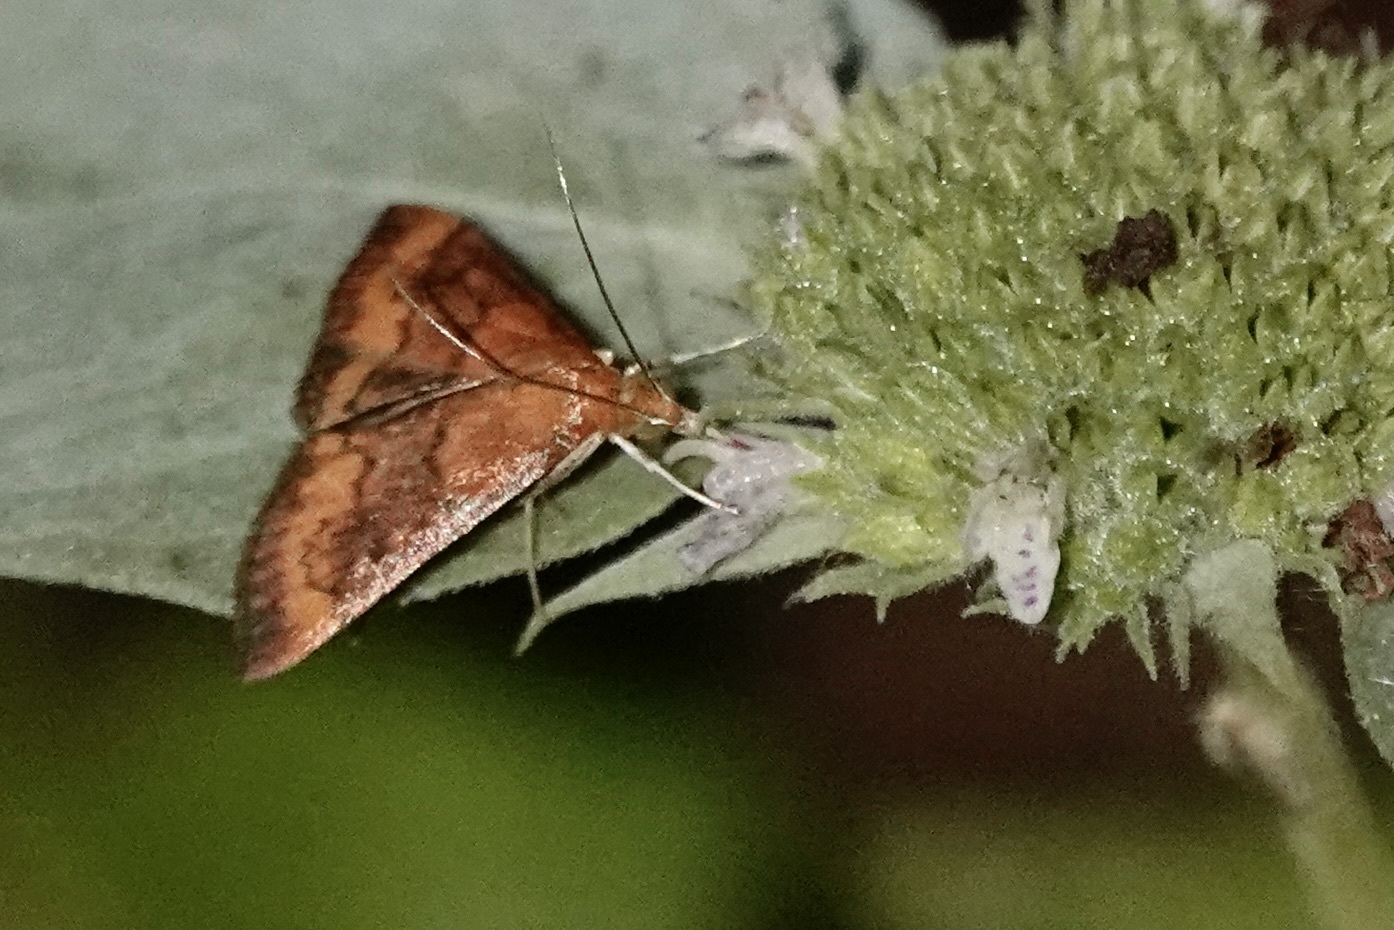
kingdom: Animalia
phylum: Arthropoda
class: Insecta
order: Lepidoptera
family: Crambidae
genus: Pyrausta
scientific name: Pyrausta rubricalis
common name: Variable reddish pyrausta
